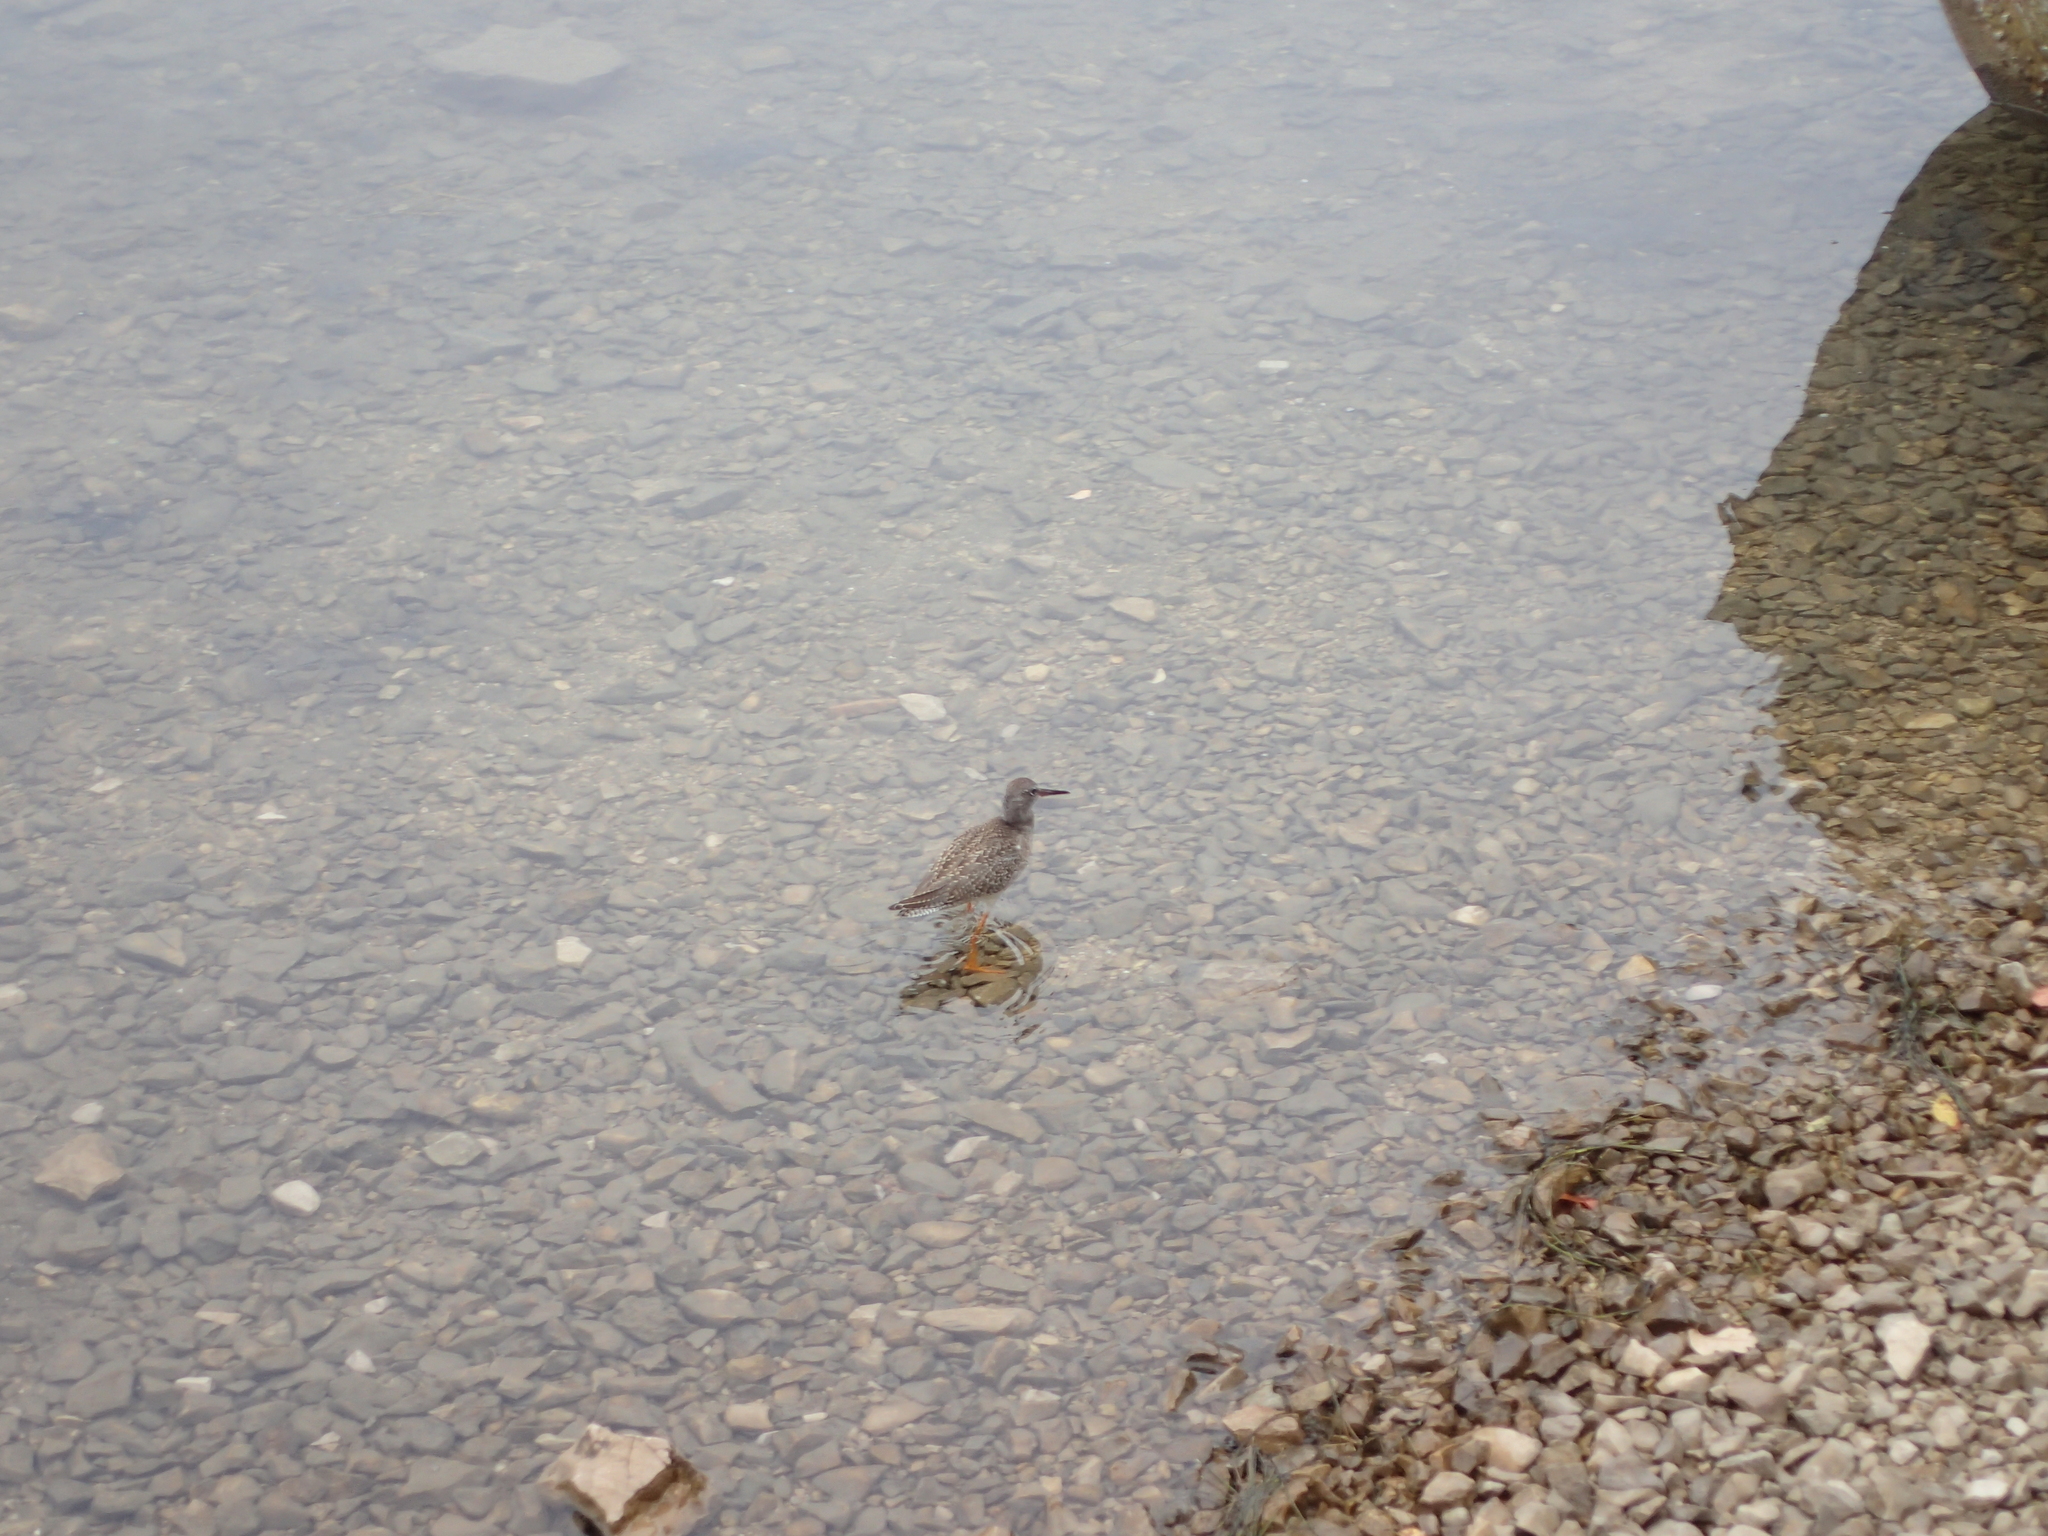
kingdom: Animalia
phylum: Chordata
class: Aves
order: Charadriiformes
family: Scolopacidae
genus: Tringa
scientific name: Tringa totanus
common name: Common redshank
